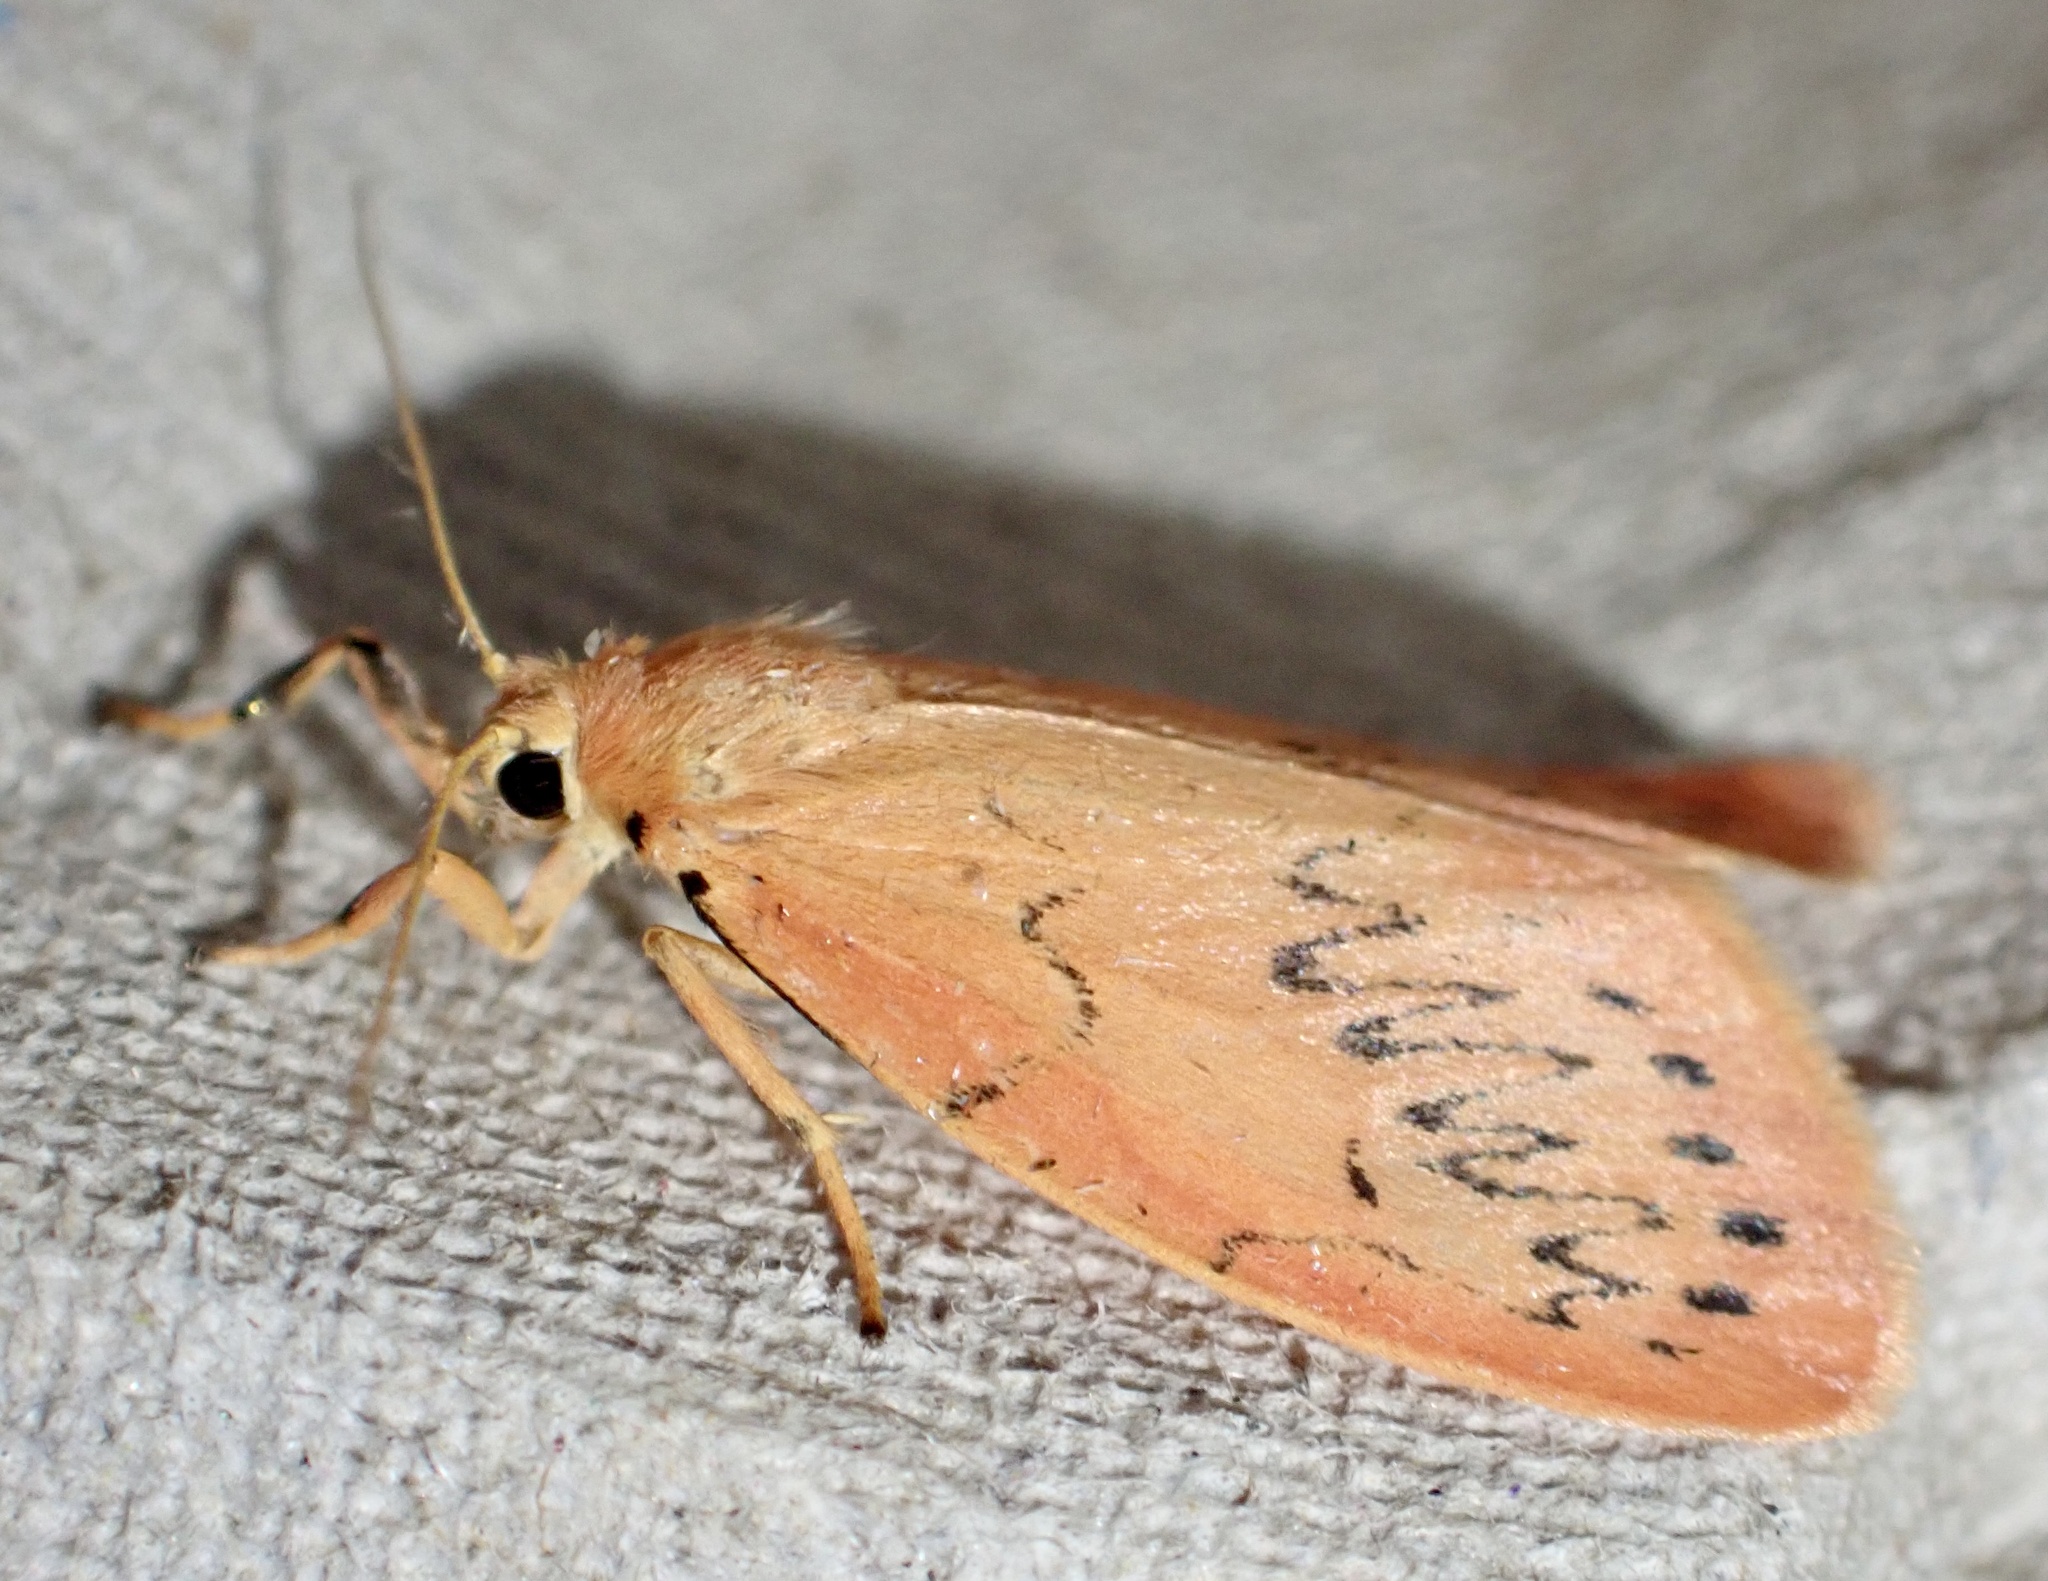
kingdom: Animalia
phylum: Arthropoda
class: Insecta
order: Lepidoptera
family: Erebidae
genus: Miltochrista
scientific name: Miltochrista miniata
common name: Rosy footman
